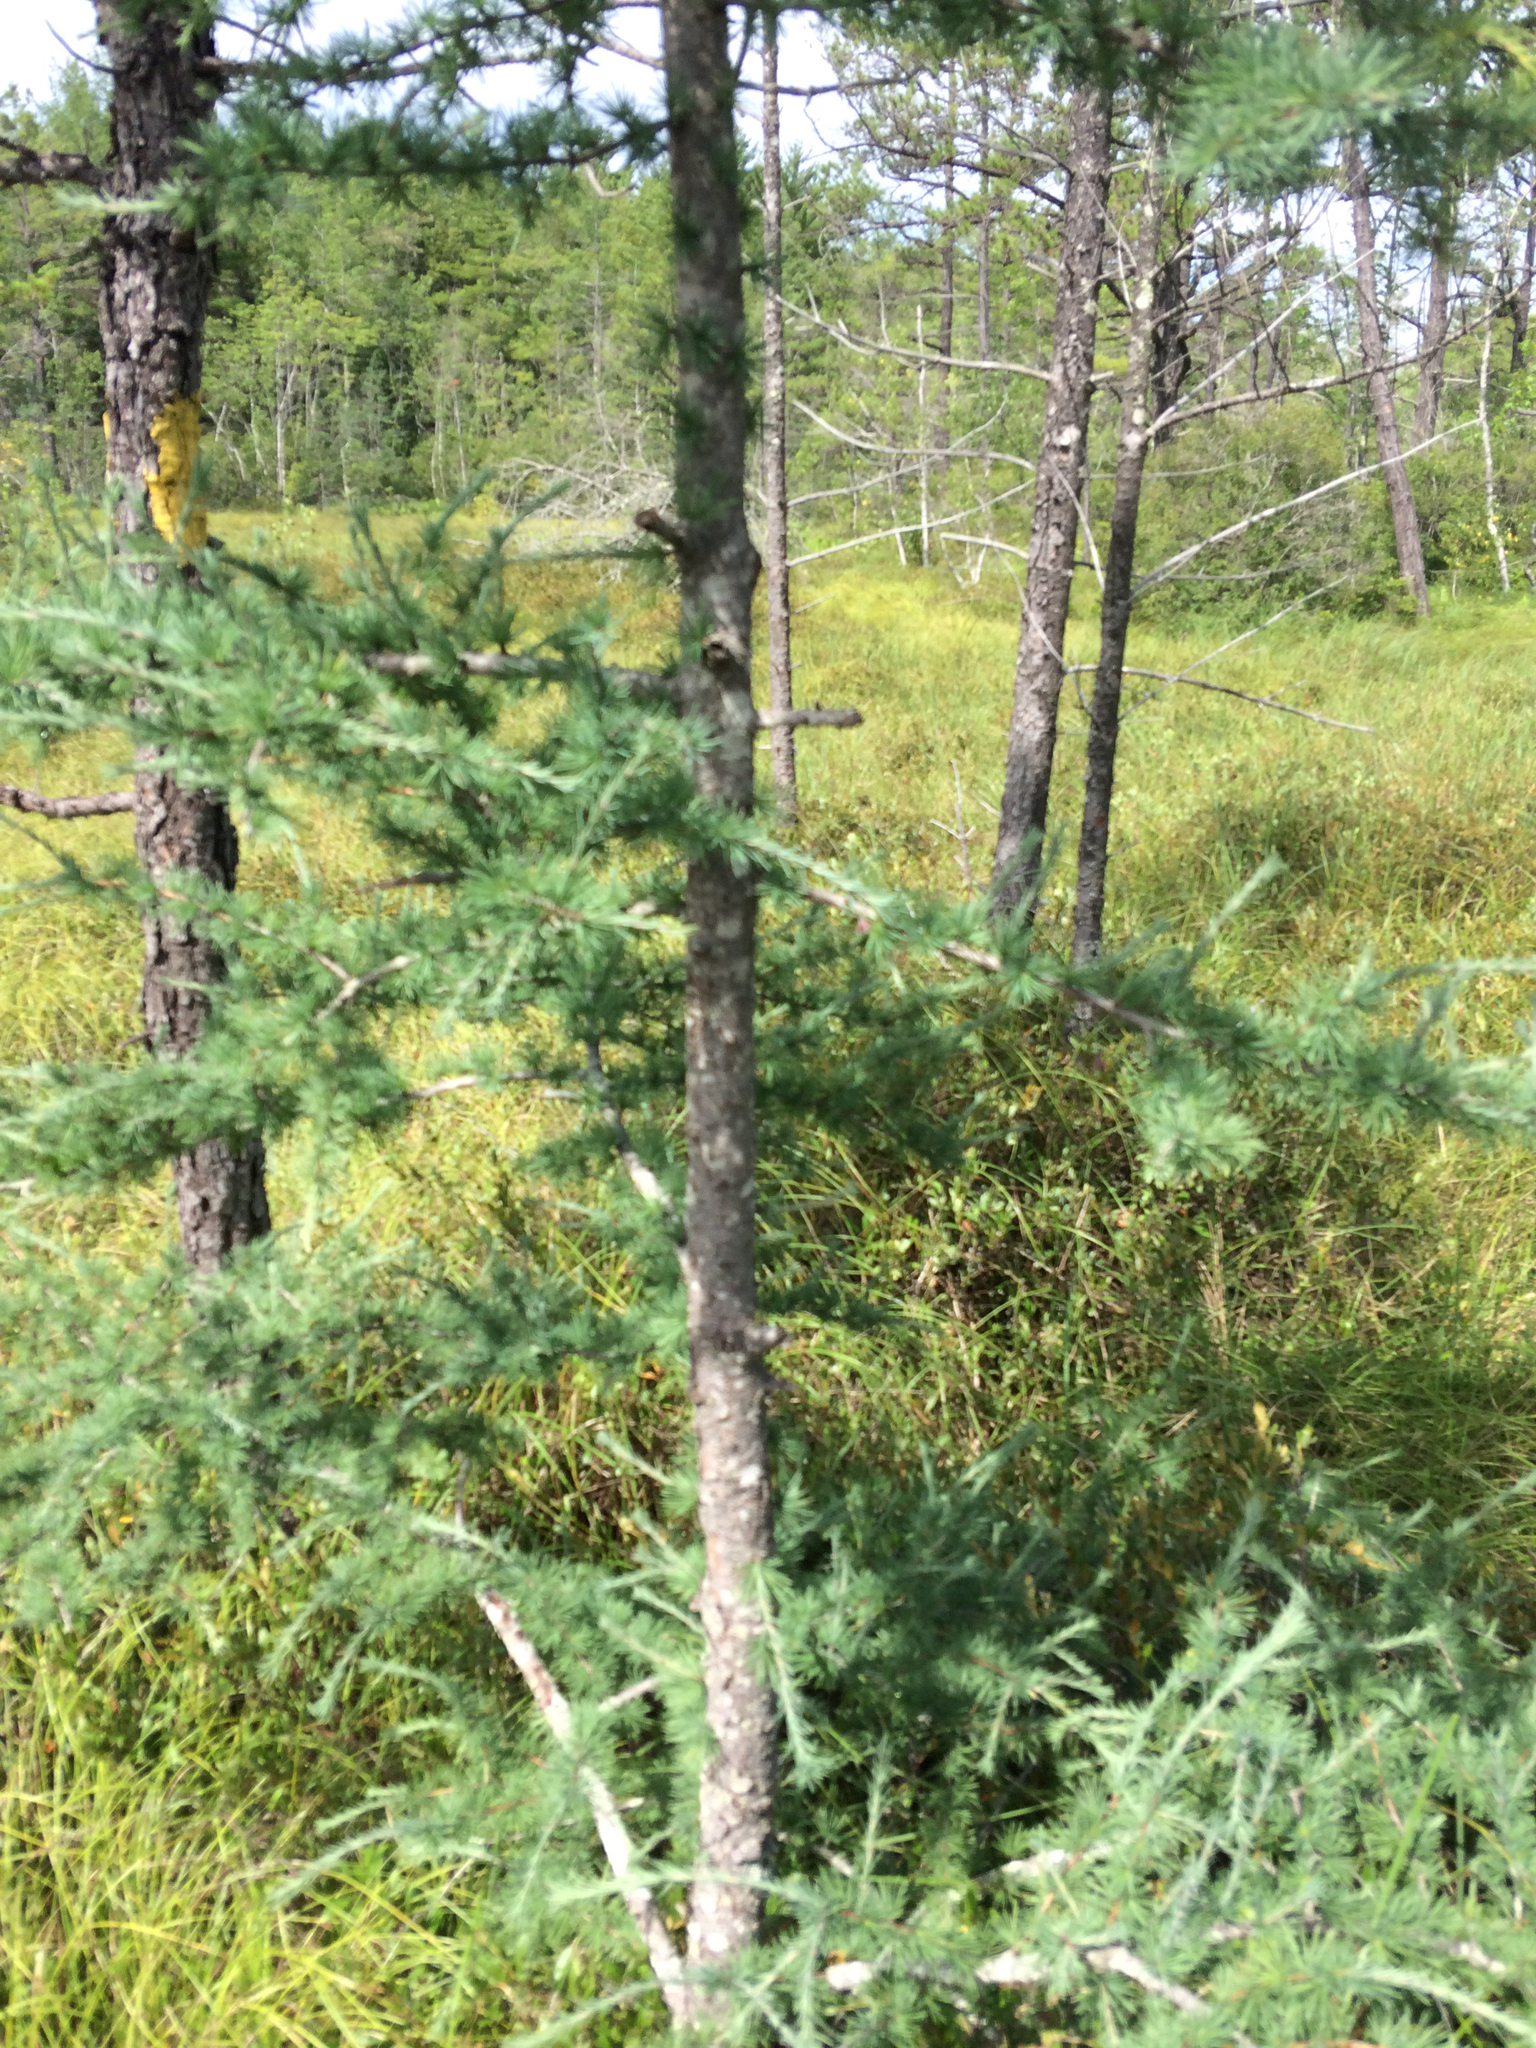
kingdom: Plantae
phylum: Tracheophyta
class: Pinopsida
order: Pinales
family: Pinaceae
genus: Larix
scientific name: Larix laricina
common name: American larch
